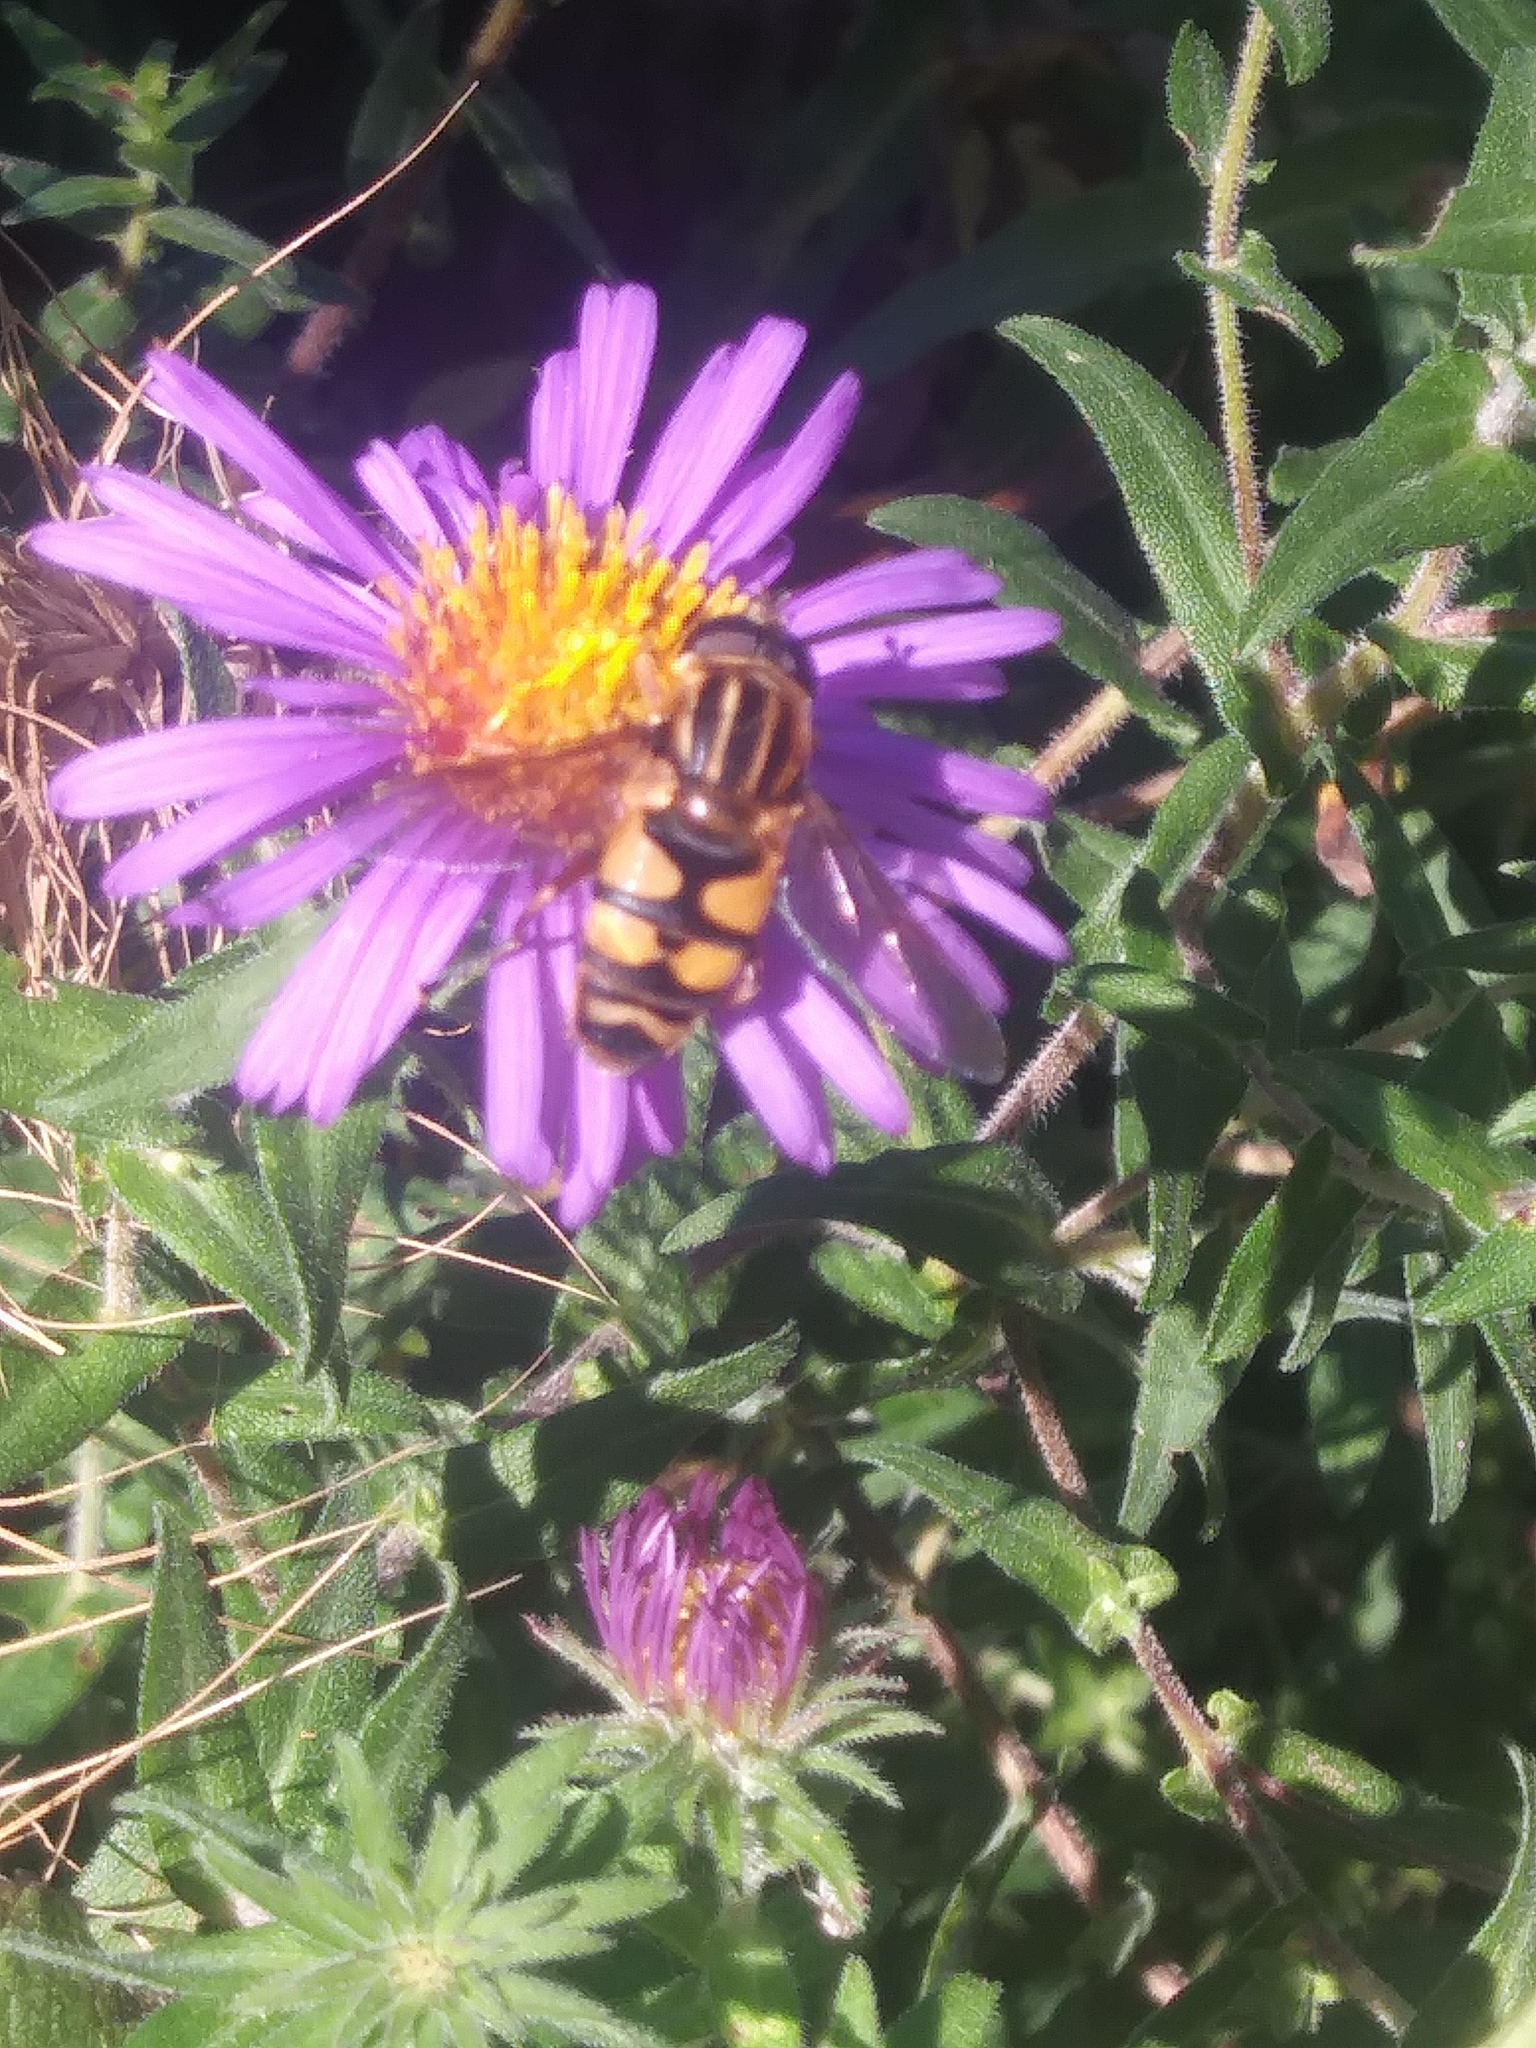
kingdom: Animalia
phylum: Arthropoda
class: Insecta
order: Diptera
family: Syrphidae
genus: Helophilus
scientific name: Helophilus fasciatus
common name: Narrow-headed marsh fly
